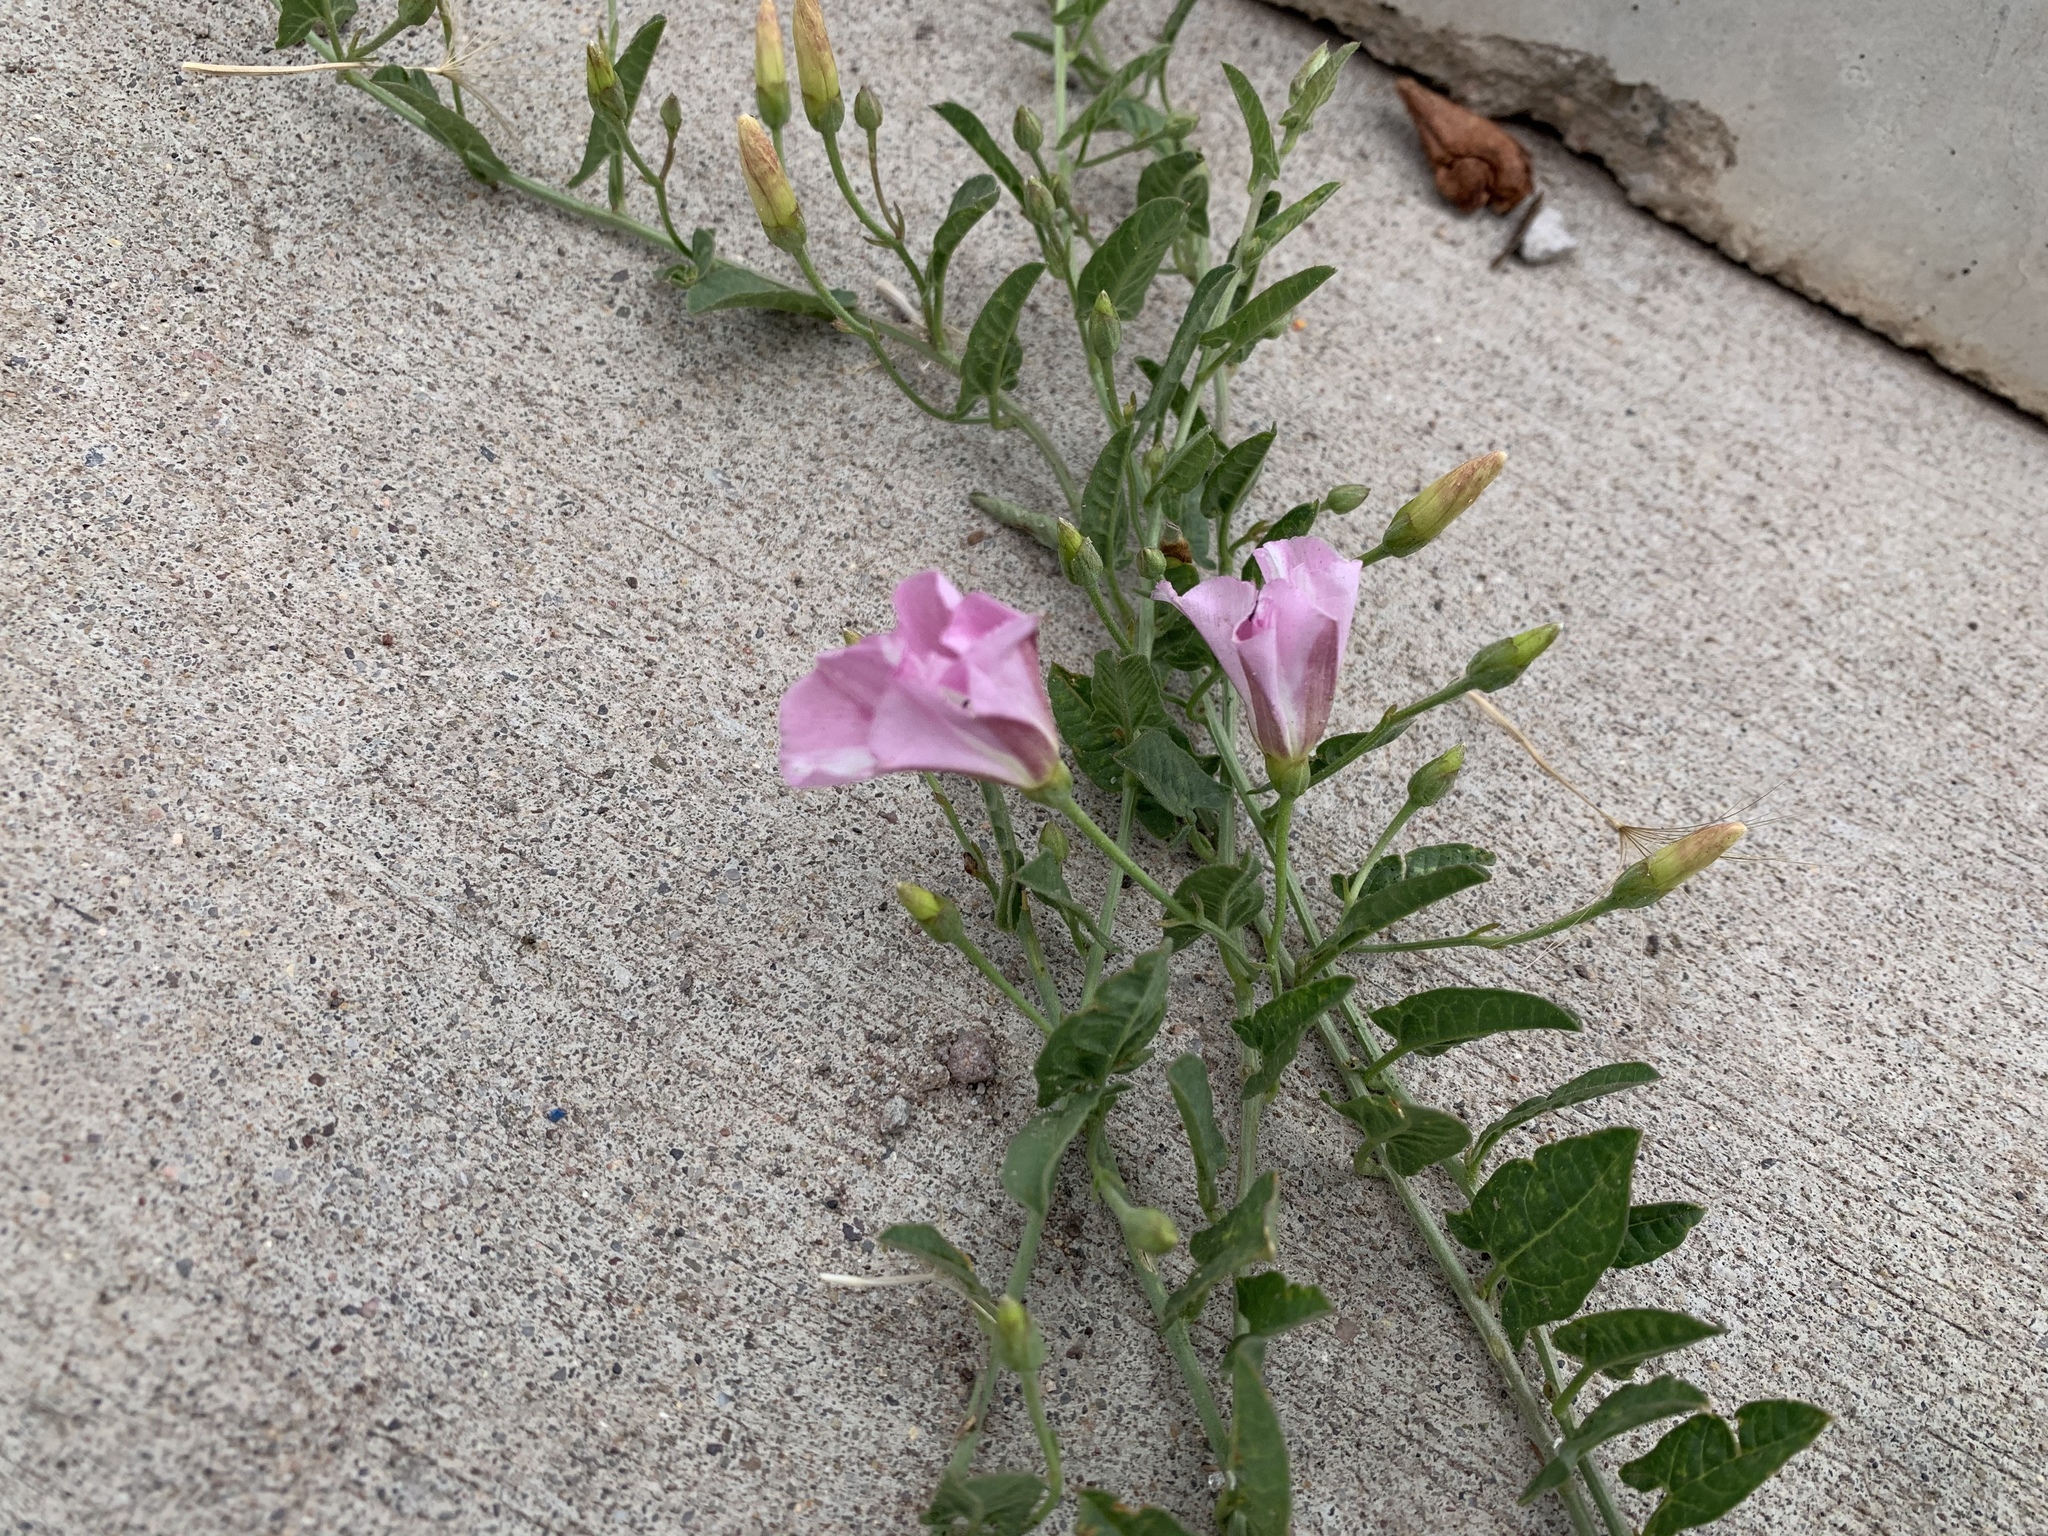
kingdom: Plantae
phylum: Tracheophyta
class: Magnoliopsida
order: Solanales
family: Convolvulaceae
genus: Convolvulus
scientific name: Convolvulus arvensis
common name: Field bindweed
